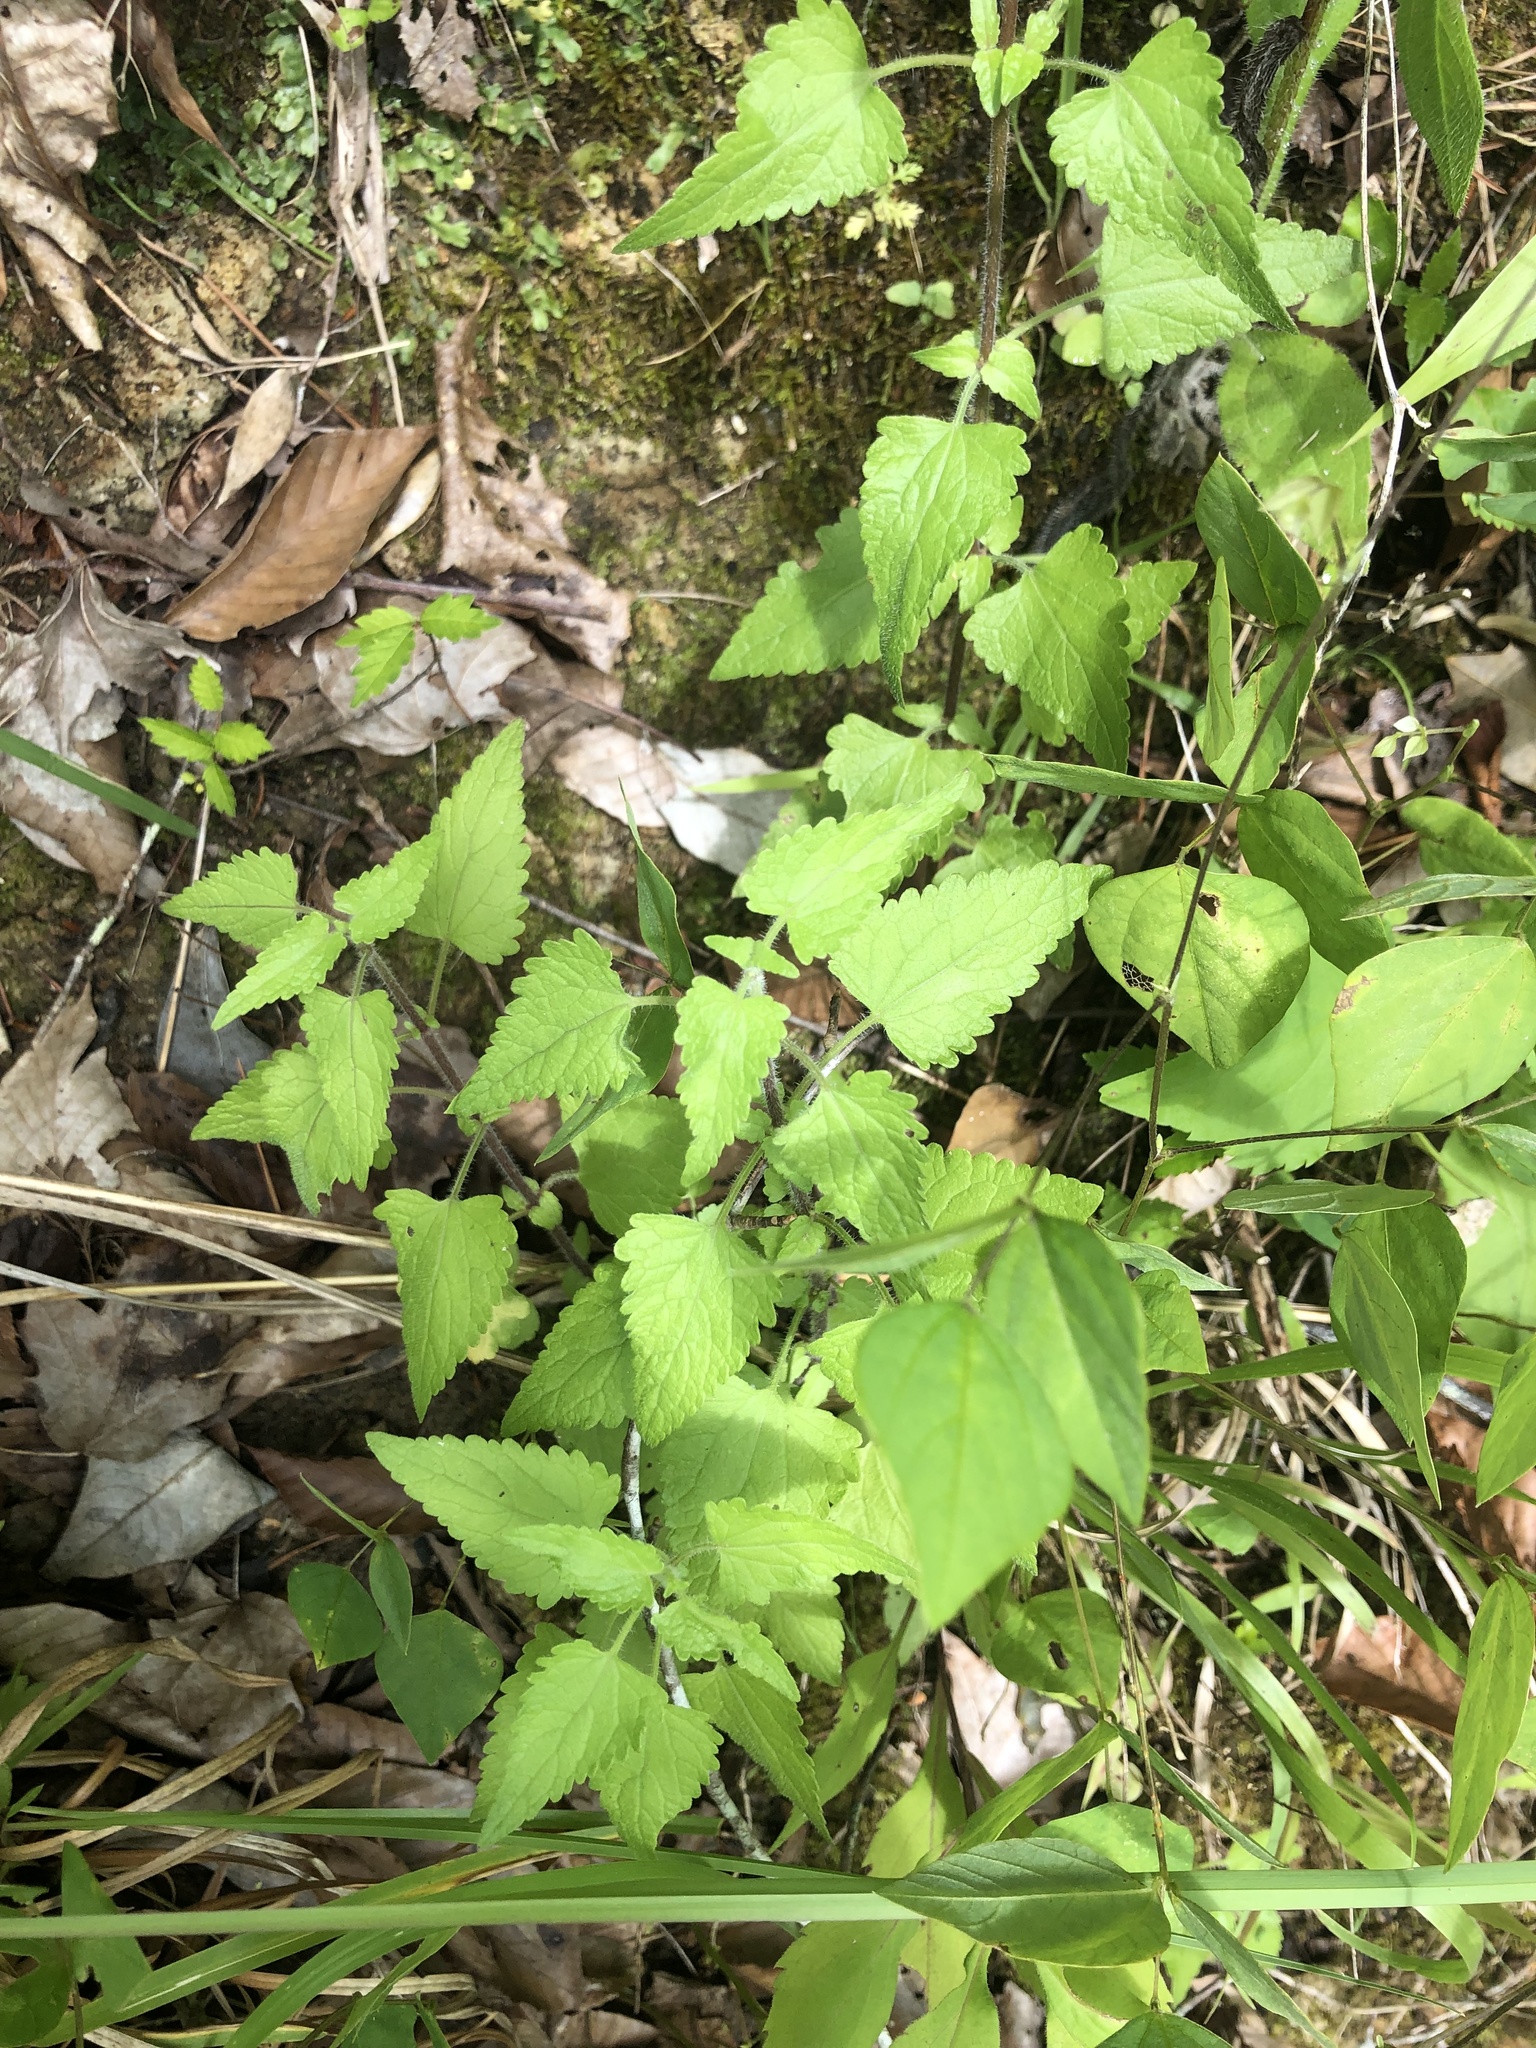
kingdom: Plantae
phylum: Tracheophyta
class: Magnoliopsida
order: Asterales
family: Asteraceae
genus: Fleischmannia
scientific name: Fleischmannia incarnata
